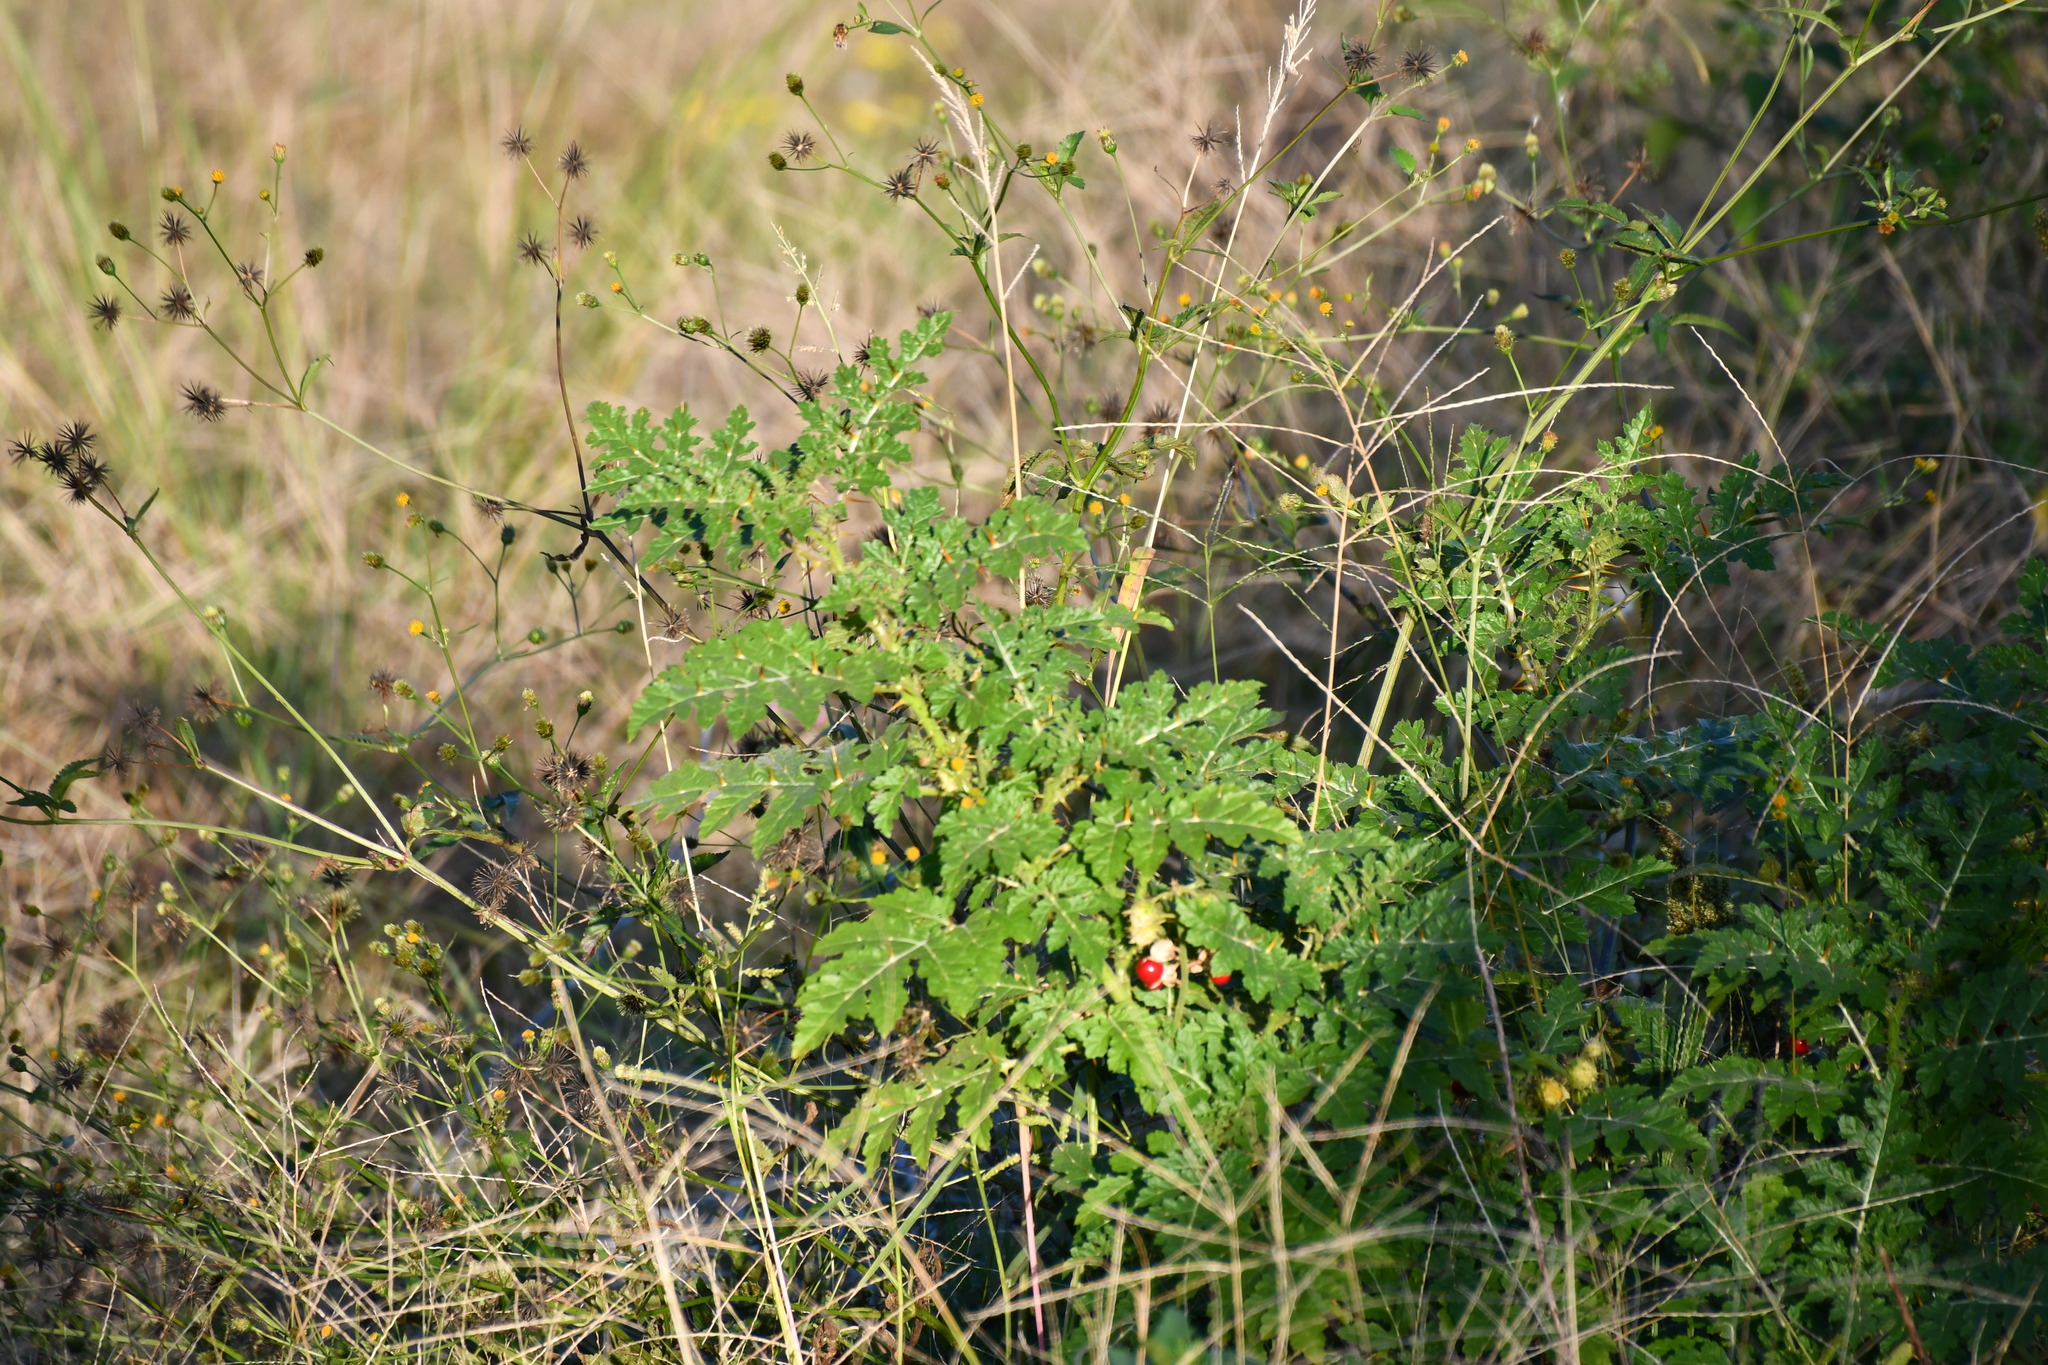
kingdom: Plantae
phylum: Tracheophyta
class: Magnoliopsida
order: Solanales
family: Solanaceae
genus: Solanum
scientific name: Solanum sisymbriifolium
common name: Red buffalo-bur
